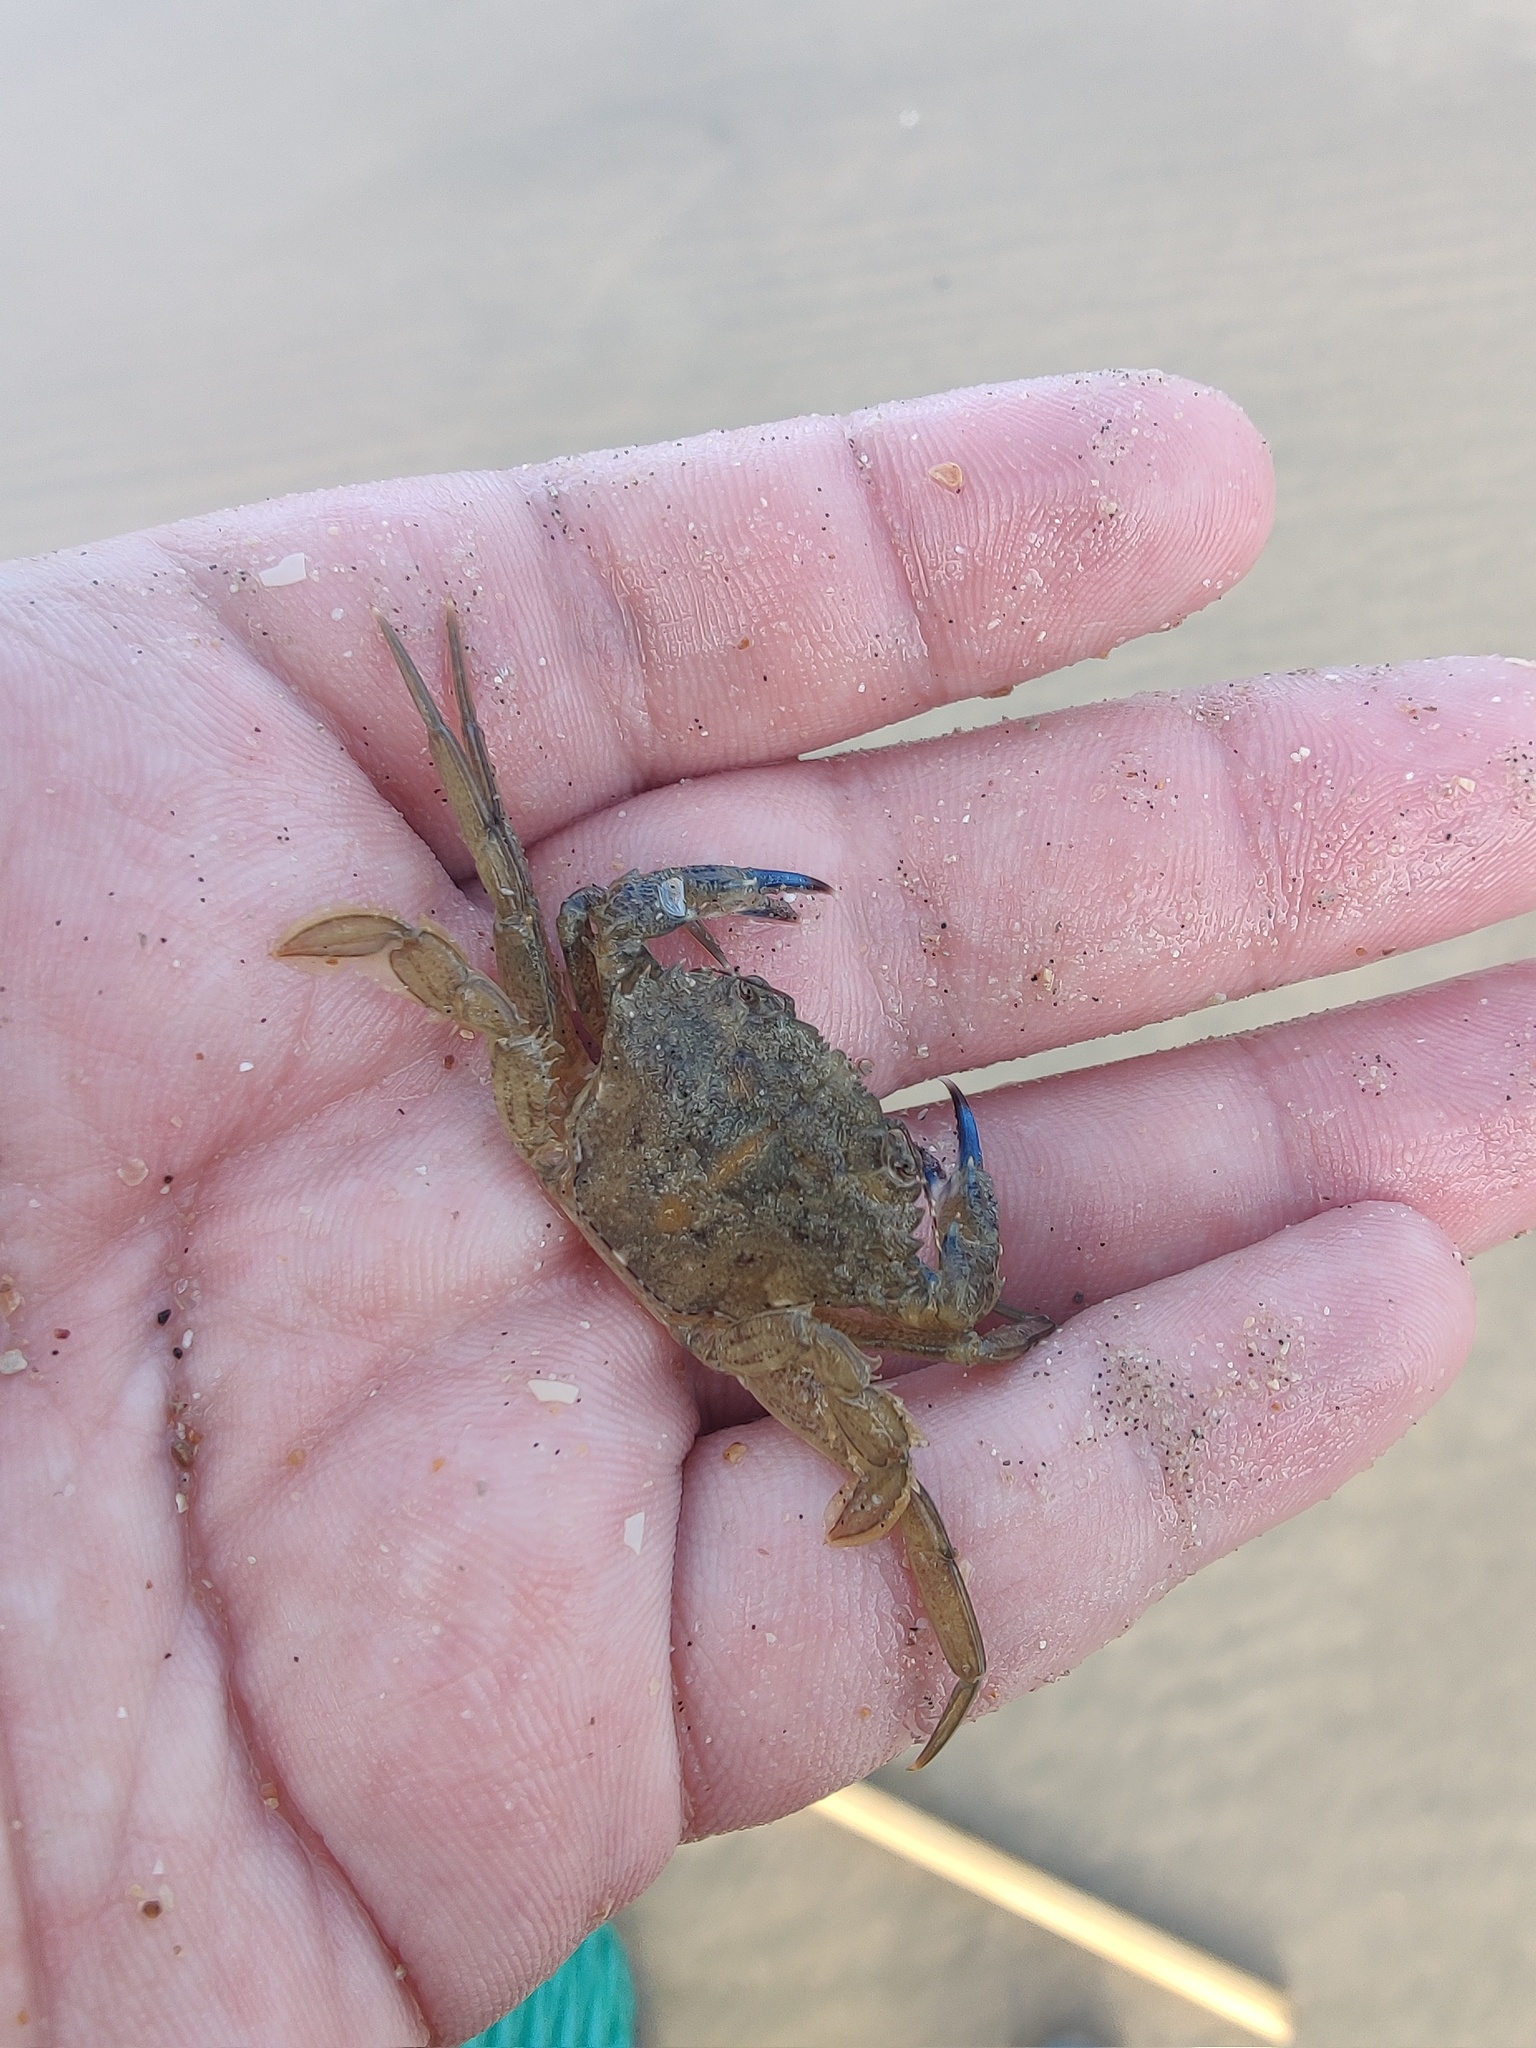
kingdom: Animalia
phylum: Arthropoda
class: Malacostraca
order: Decapoda
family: Polybiidae
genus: Necora
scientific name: Necora puber
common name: Velvet swimming crab
